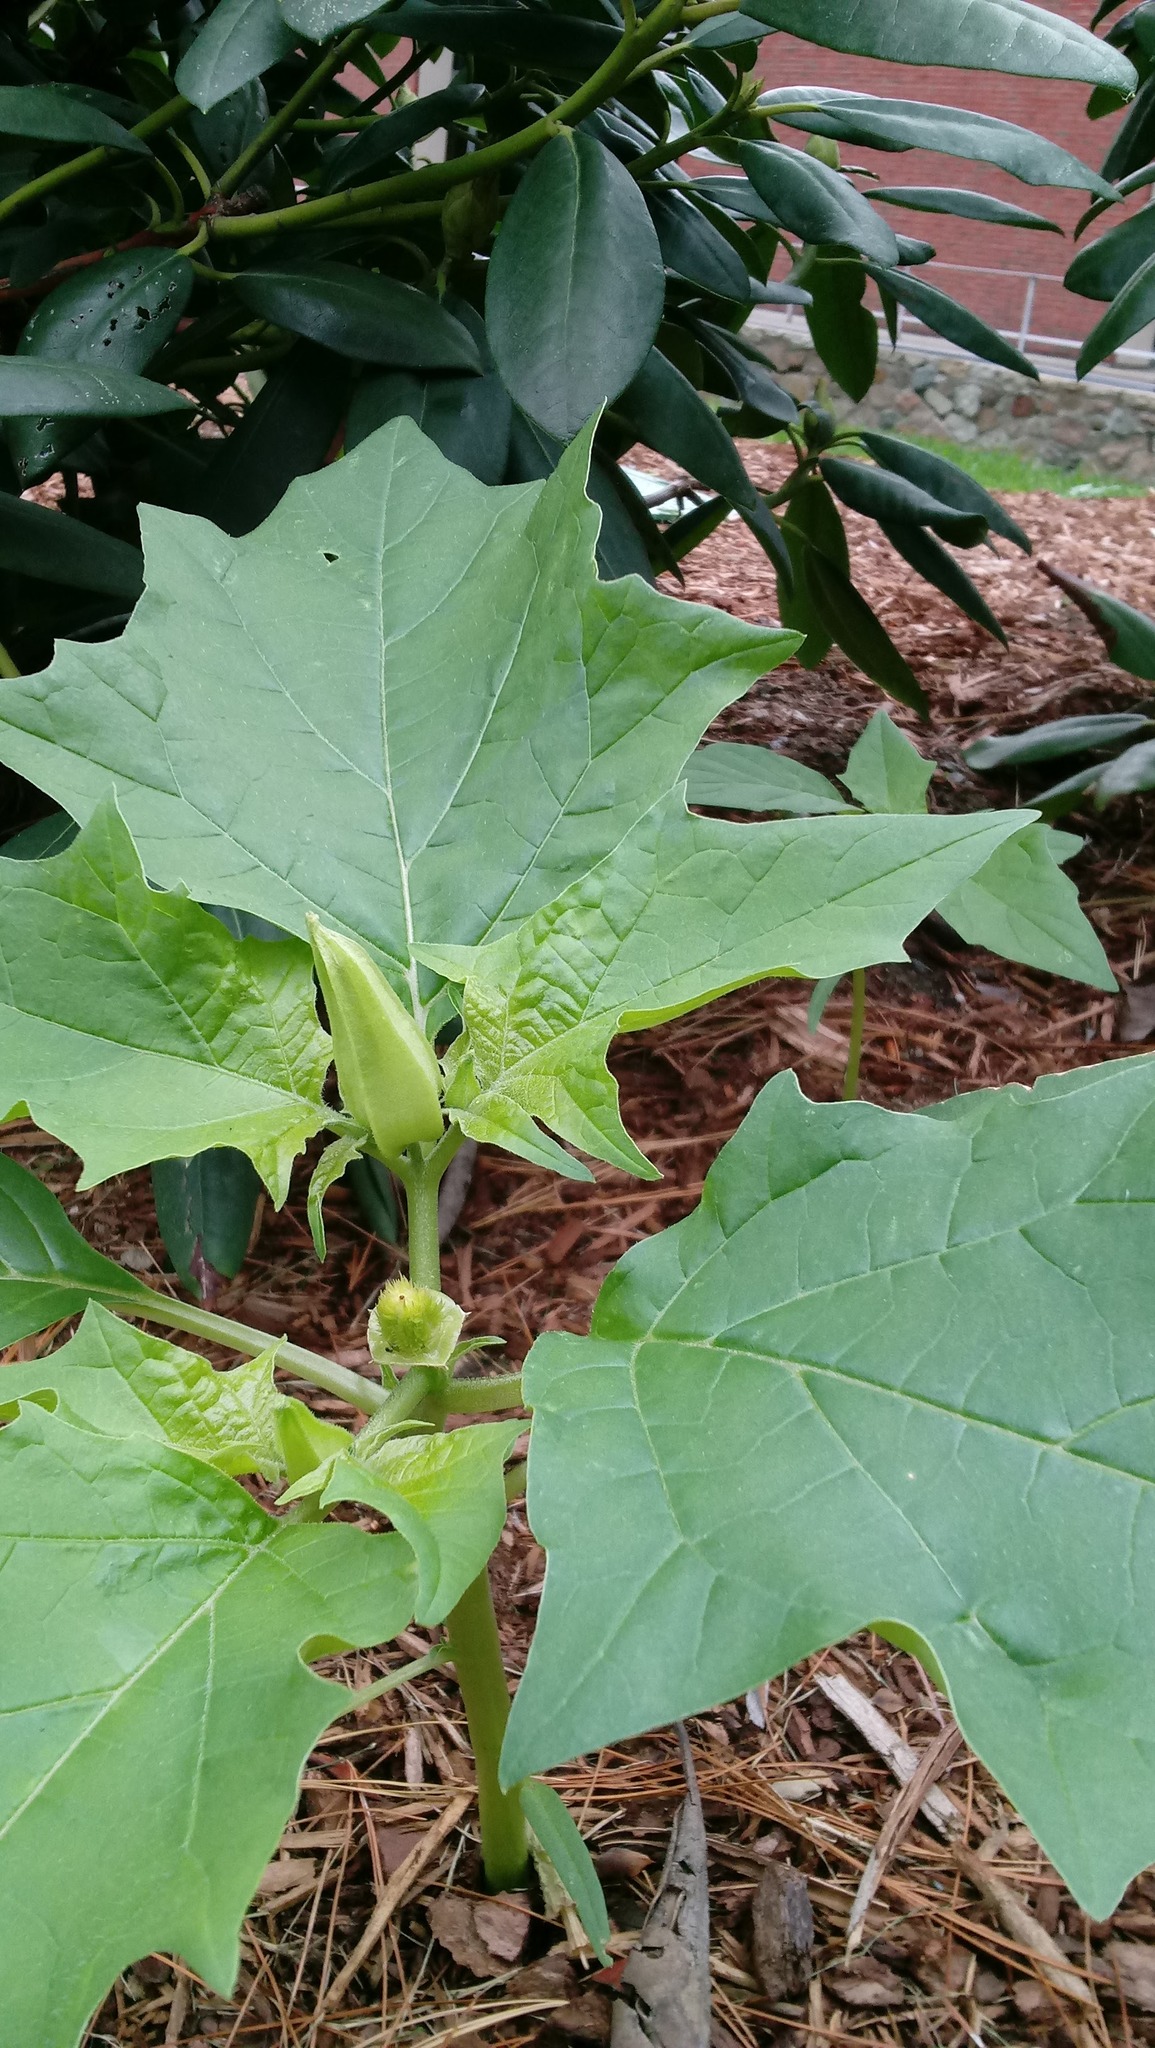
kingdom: Plantae
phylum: Tracheophyta
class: Magnoliopsida
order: Solanales
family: Solanaceae
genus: Datura
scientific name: Datura stramonium
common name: Thorn-apple
